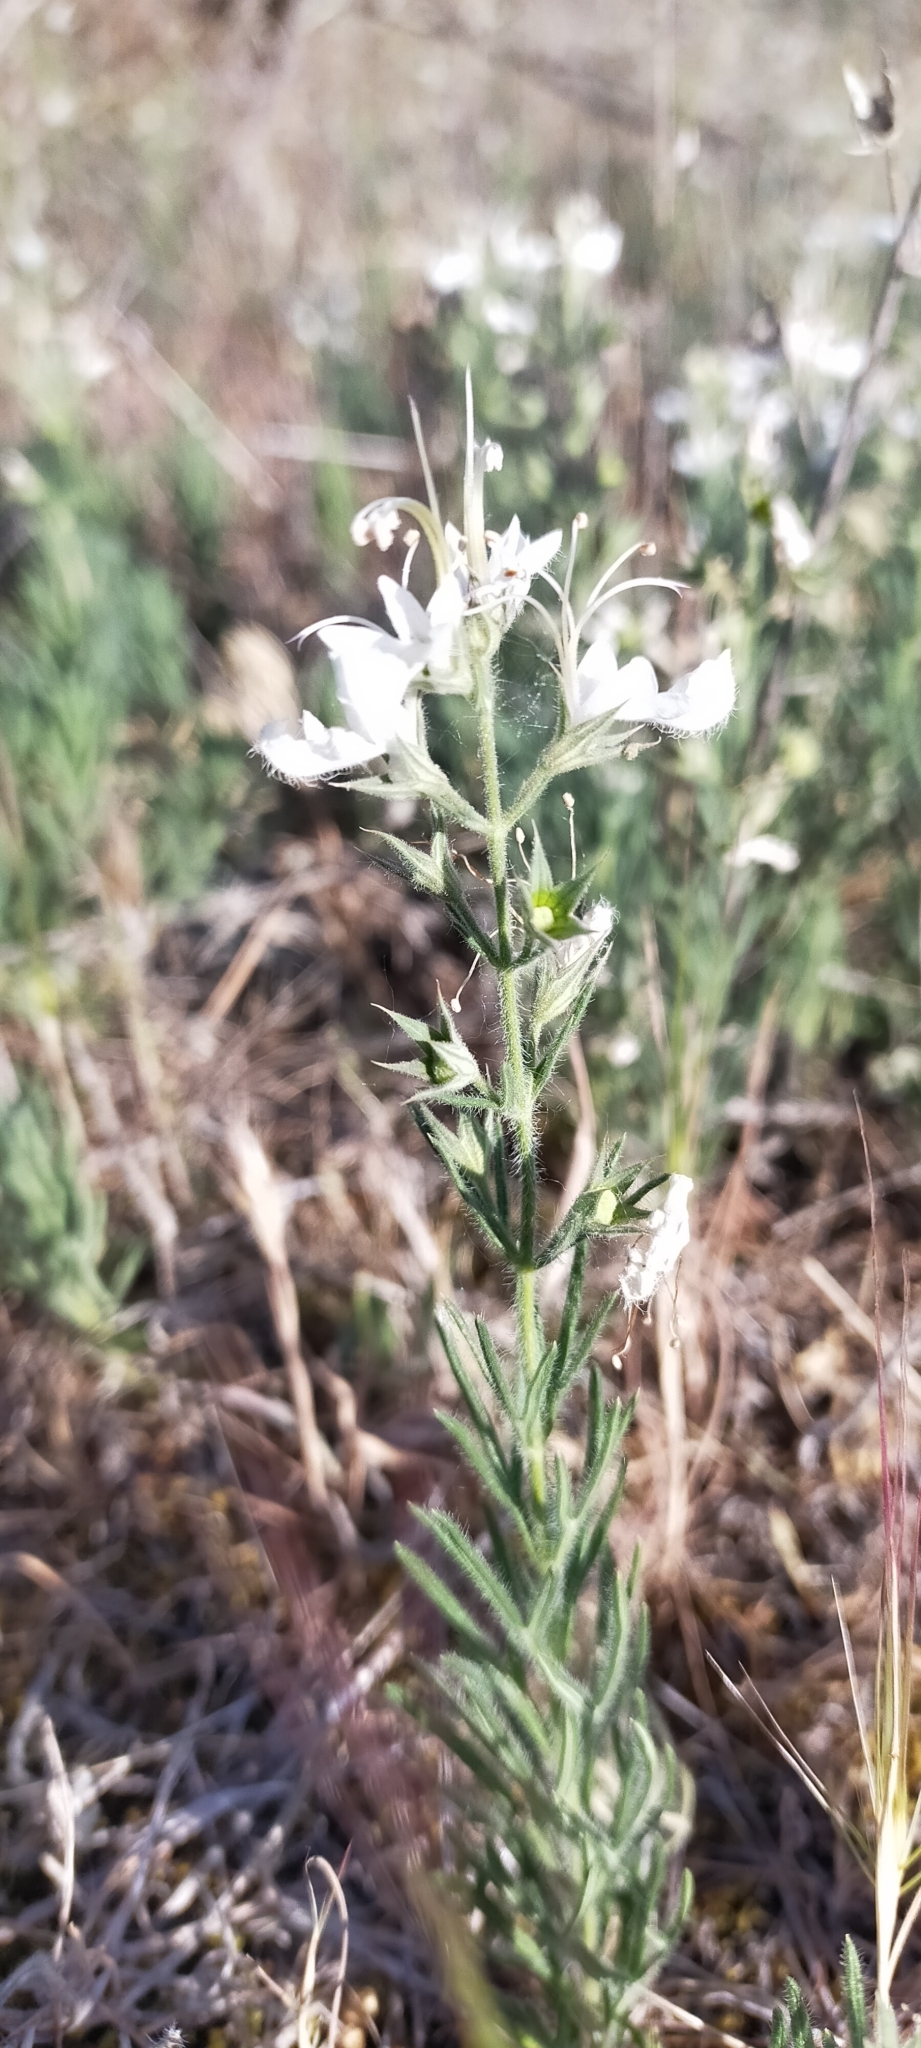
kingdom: Plantae
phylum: Tracheophyta
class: Magnoliopsida
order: Lamiales
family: Lamiaceae
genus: Teucrium
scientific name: Teucrium pseudochamaepitys
